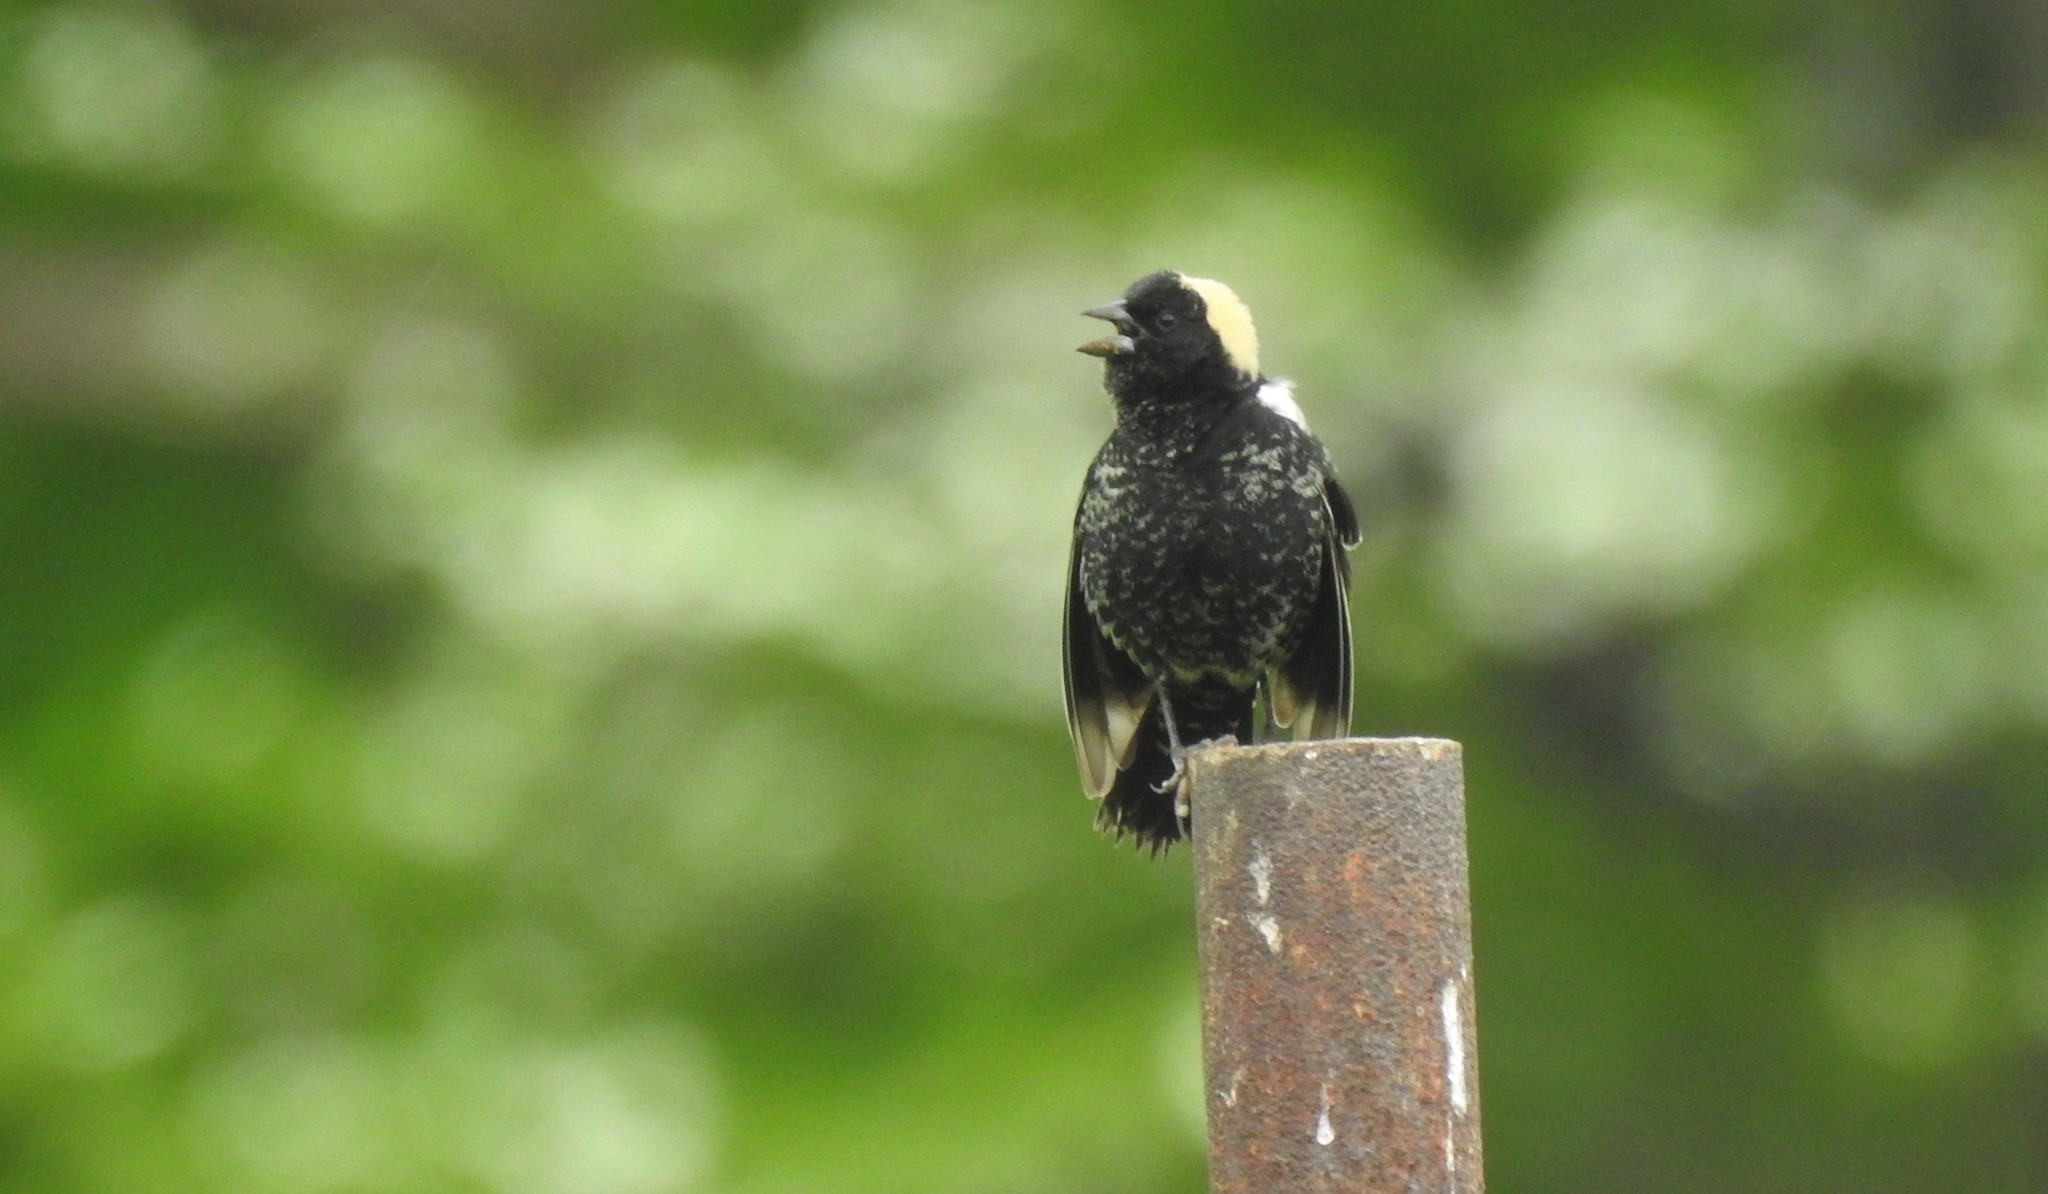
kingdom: Animalia
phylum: Chordata
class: Aves
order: Passeriformes
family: Icteridae
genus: Dolichonyx
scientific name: Dolichonyx oryzivorus
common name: Bobolink
